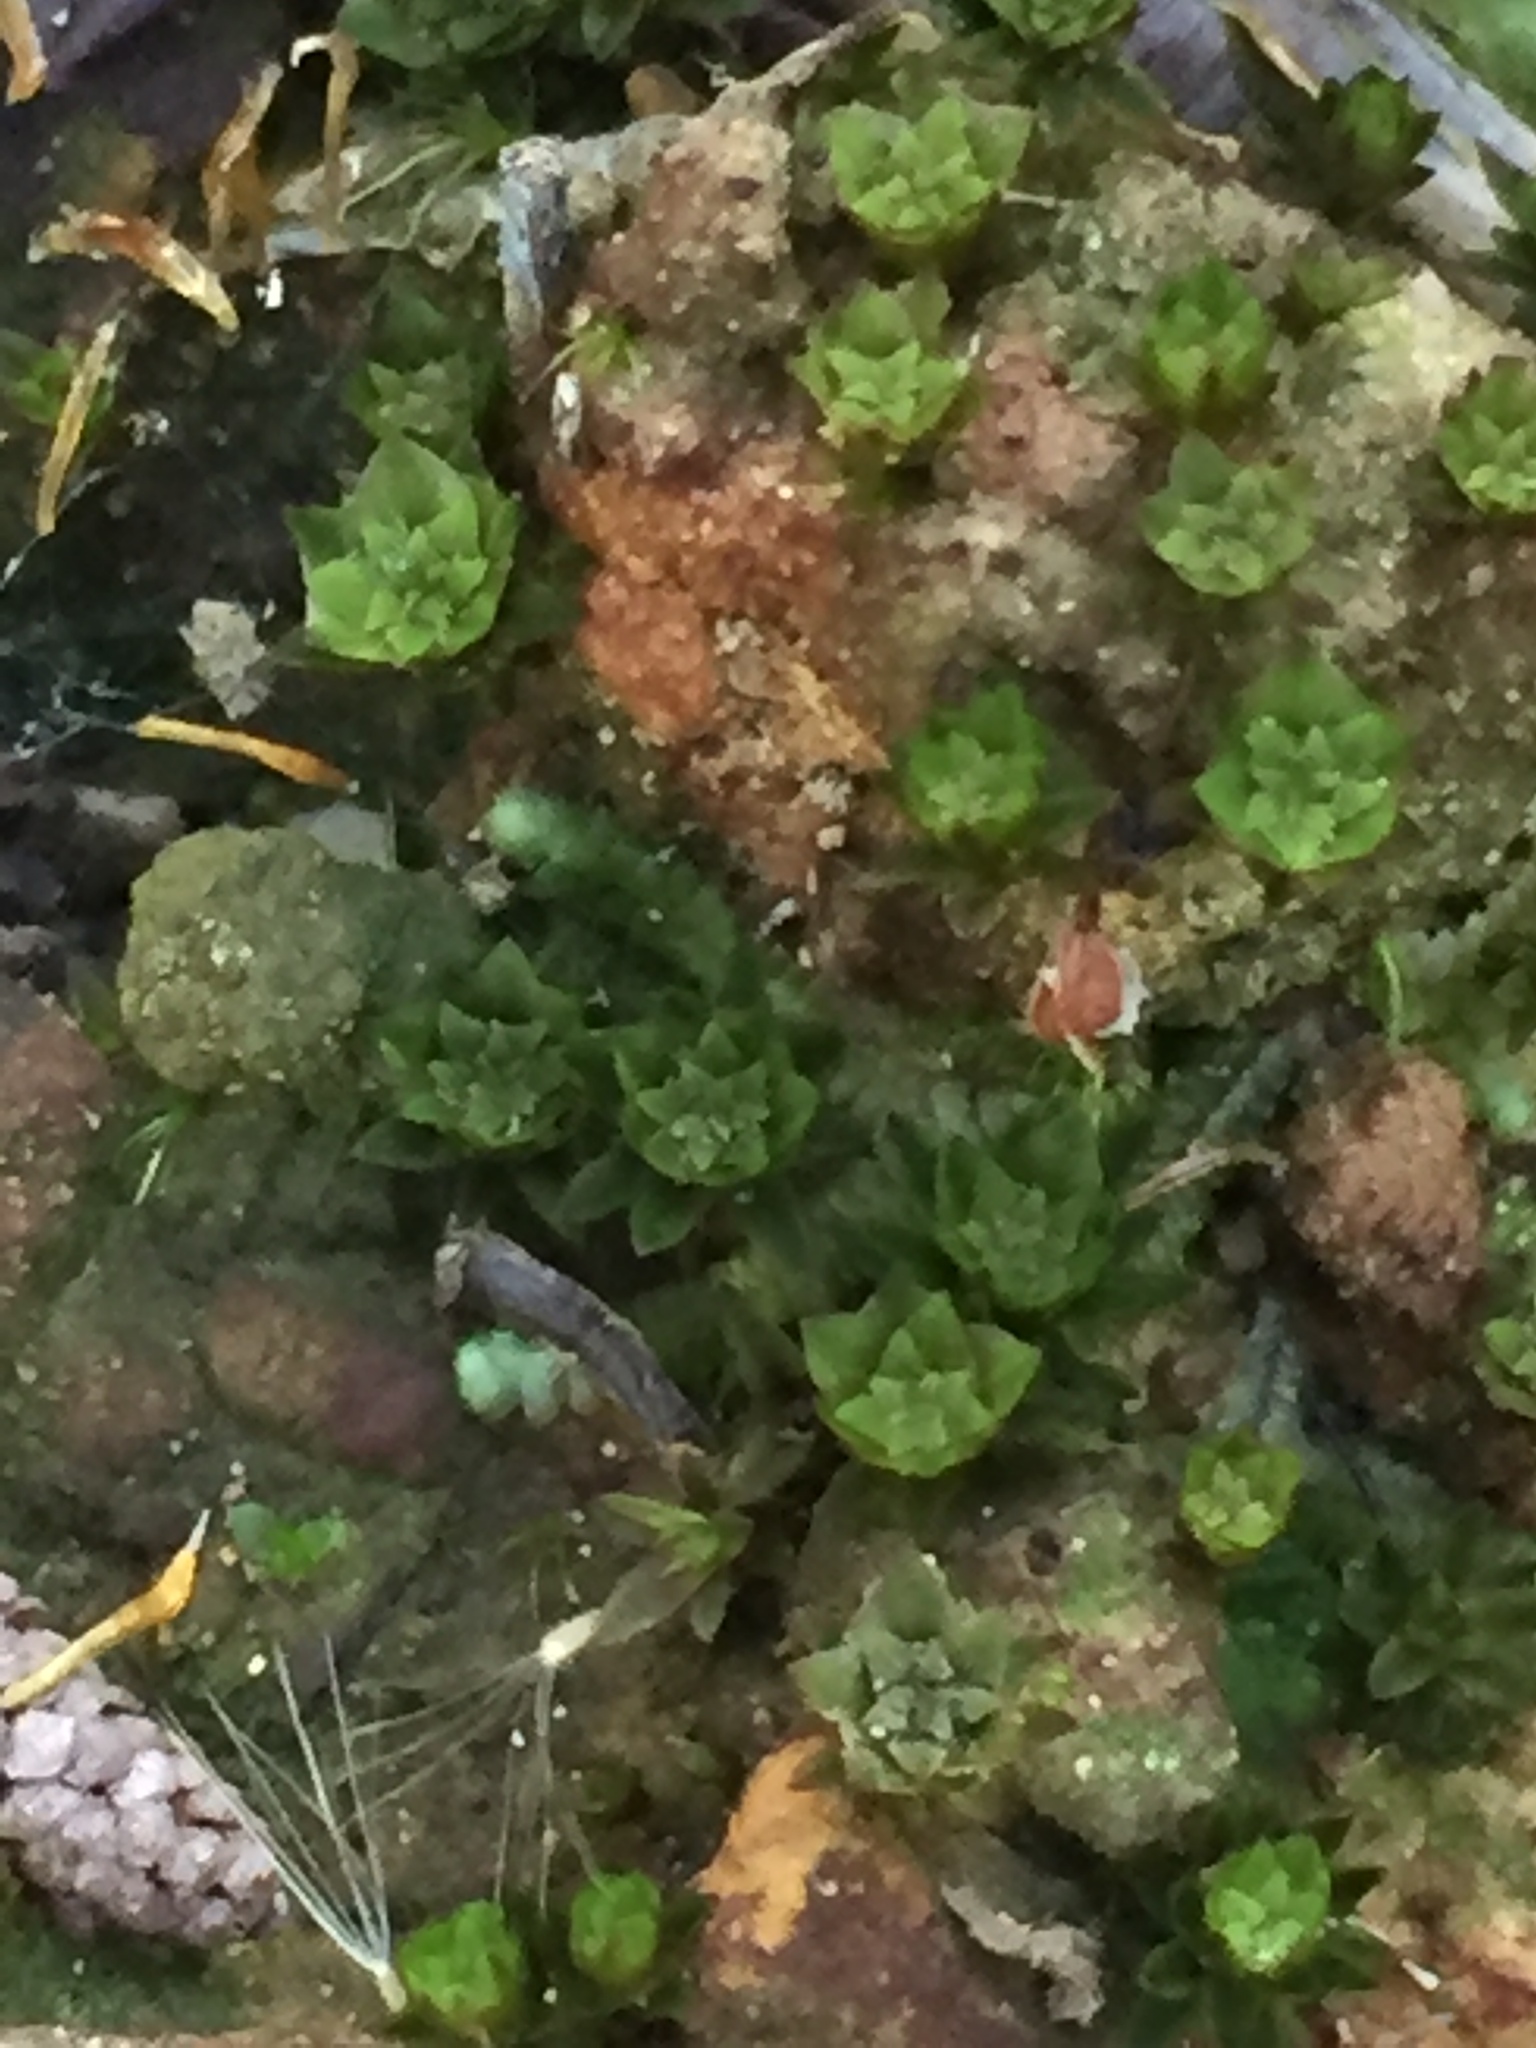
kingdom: Plantae
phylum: Bryophyta
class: Polytrichopsida
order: Polytrichales
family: Polytrichaceae
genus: Pogonatum
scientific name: Pogonatum subulatum
